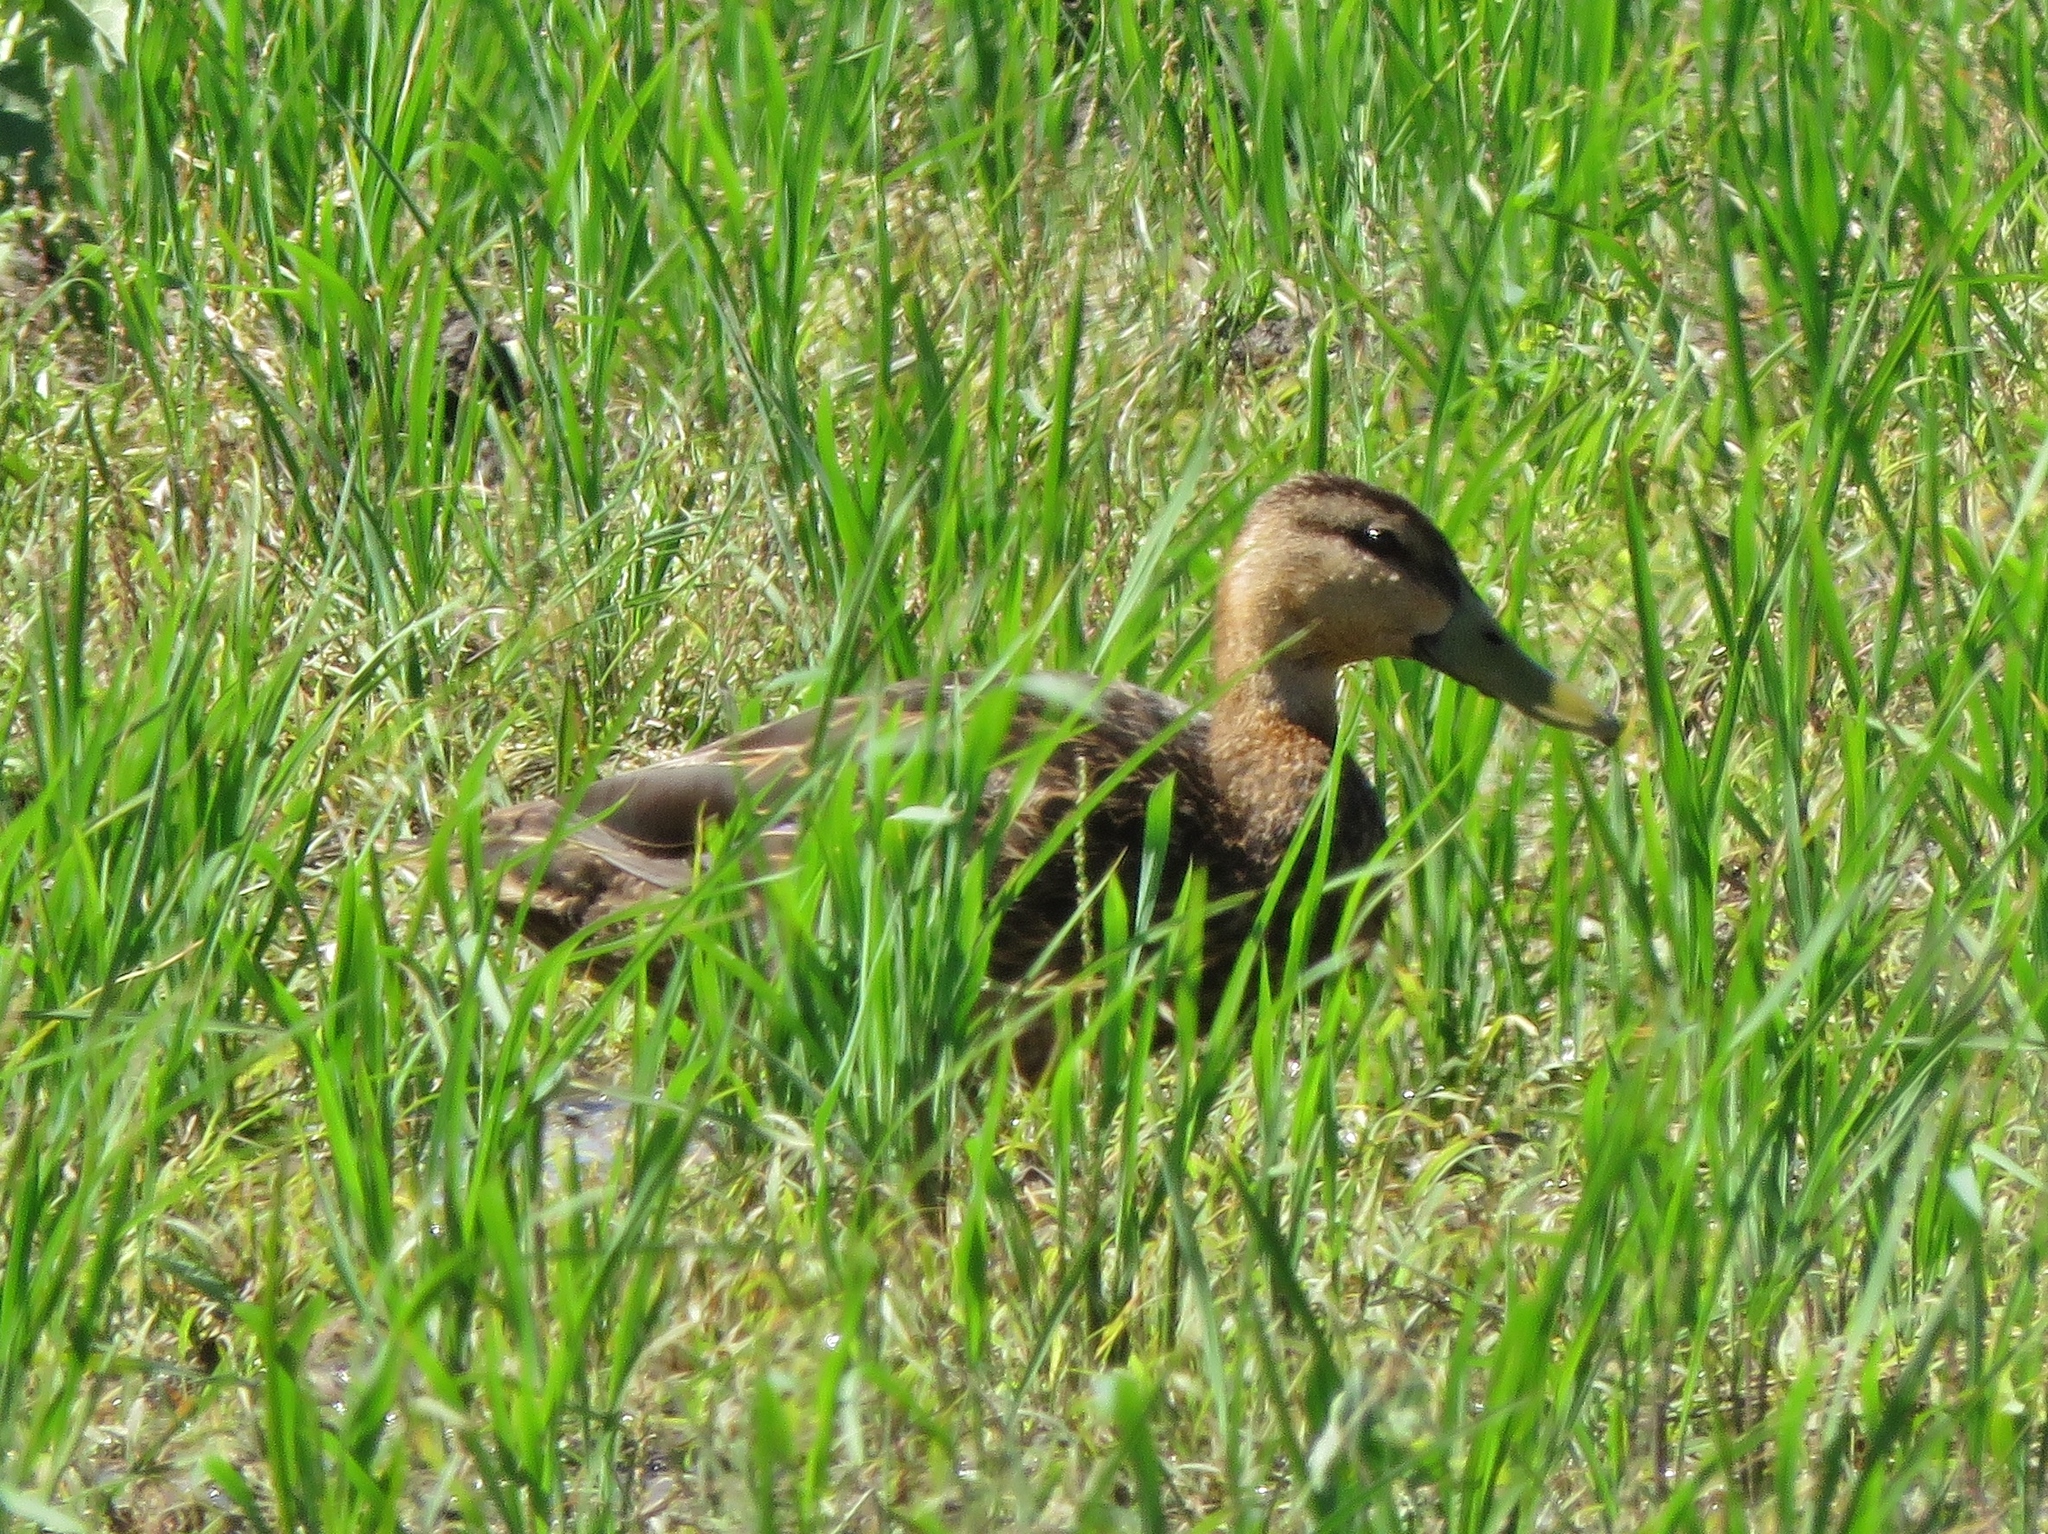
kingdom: Animalia
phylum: Chordata
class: Aves
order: Anseriformes
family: Anatidae
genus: Anas
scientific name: Anas fulvigula
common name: Mottled duck
